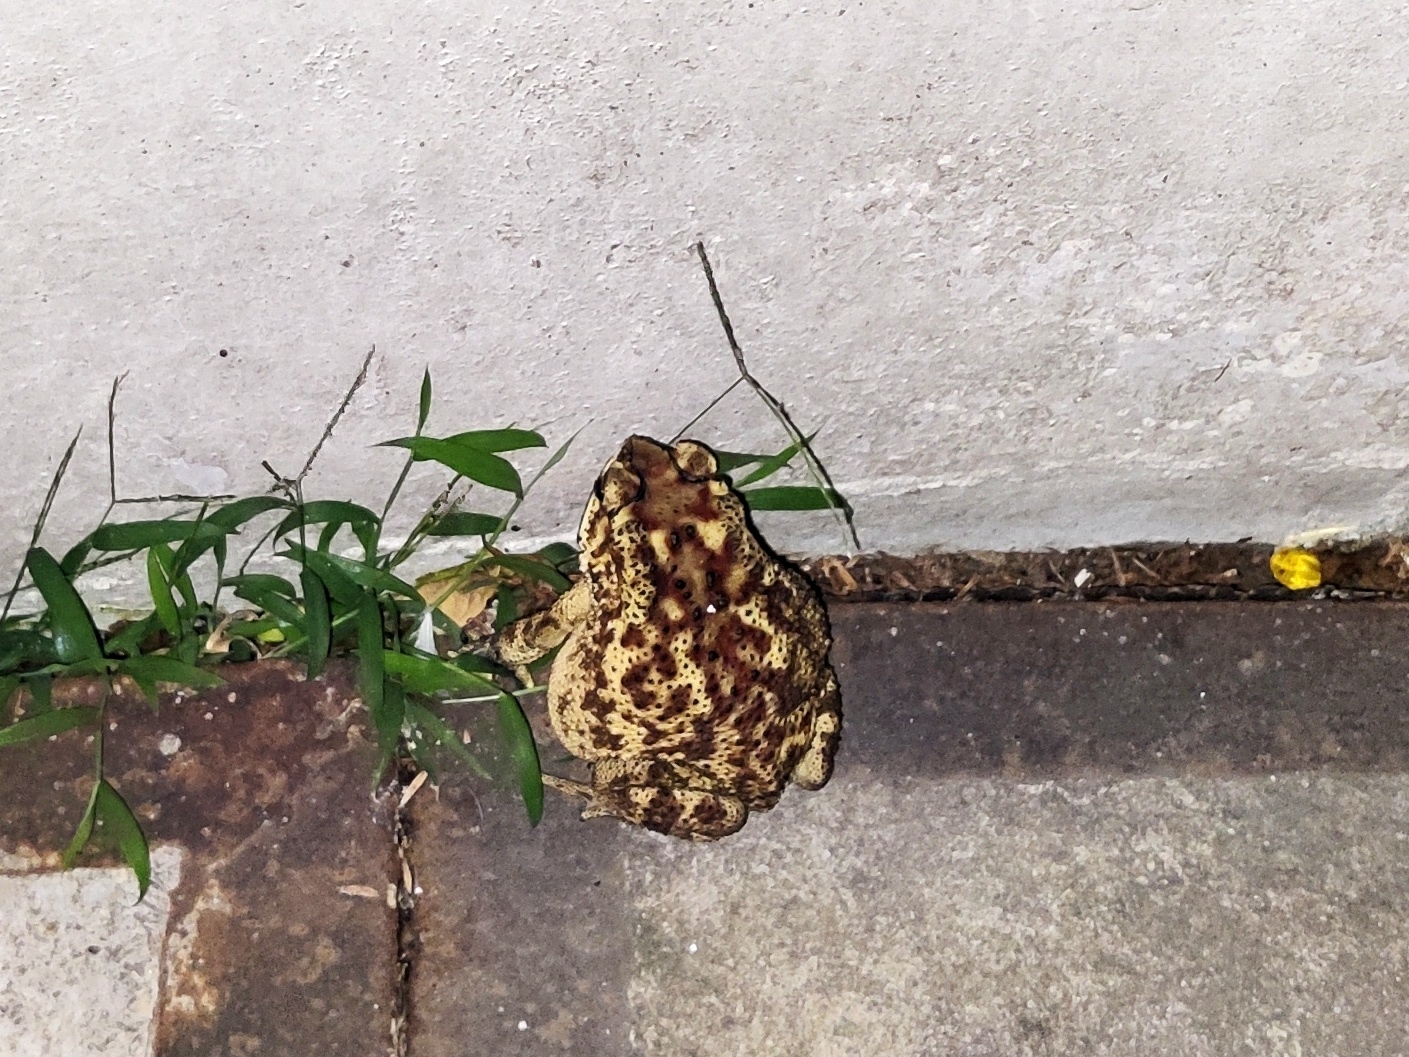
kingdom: Animalia
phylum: Chordata
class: Amphibia
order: Anura
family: Bufonidae
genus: Duttaphrynus
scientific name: Duttaphrynus melanostictus
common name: Common sunda toad
